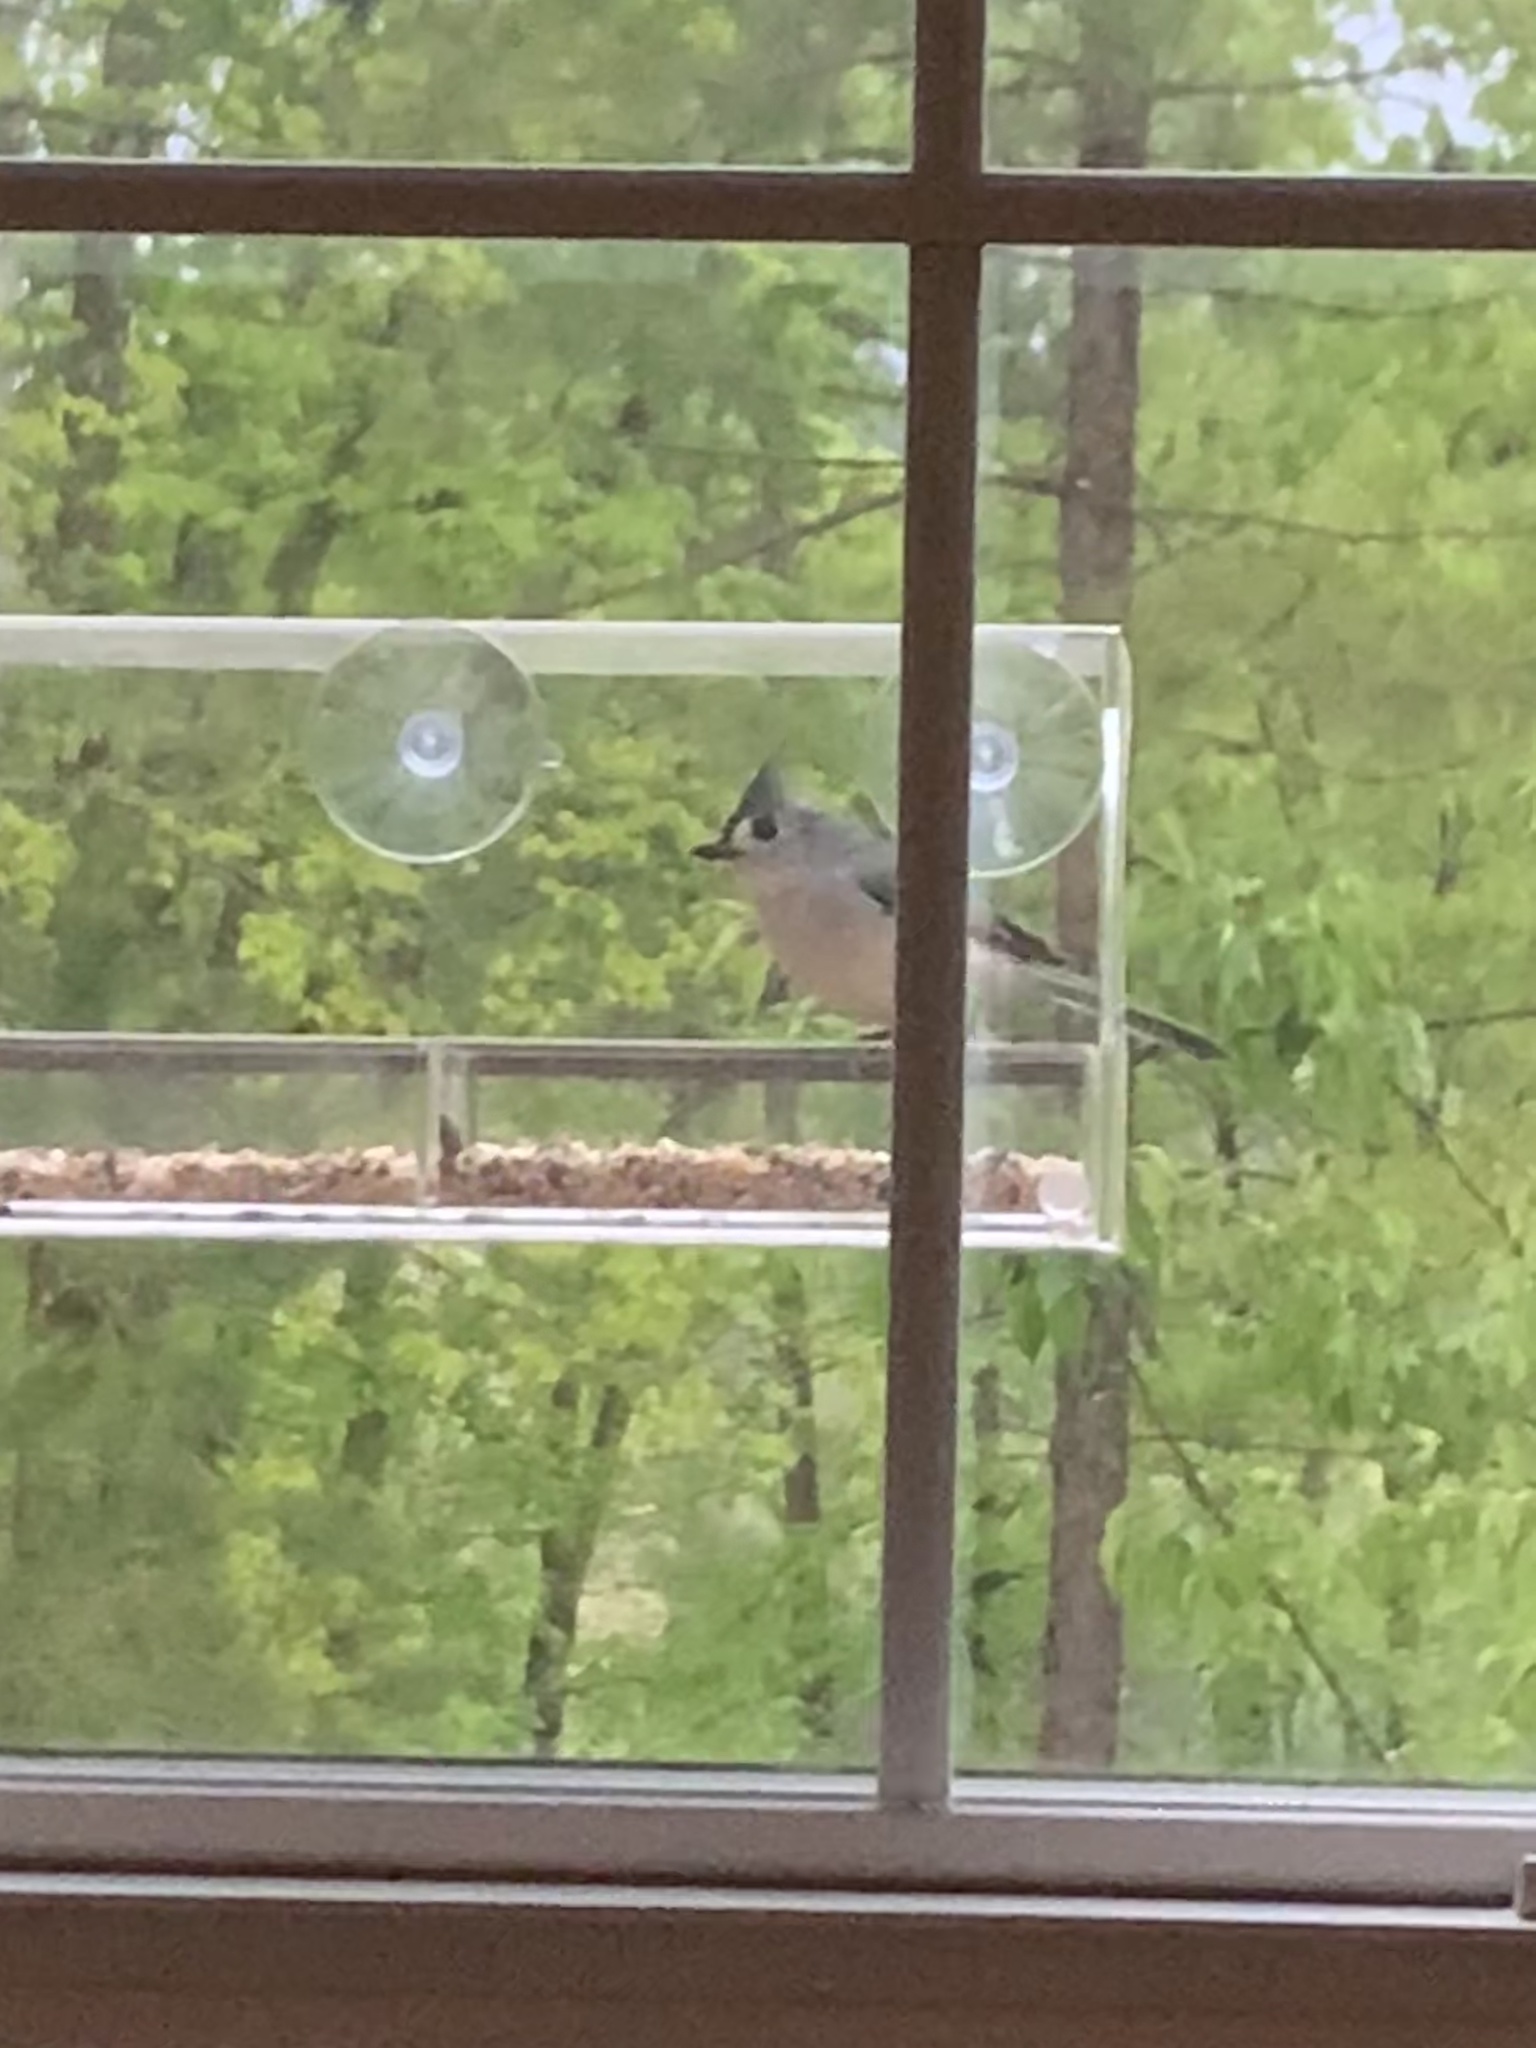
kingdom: Animalia
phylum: Chordata
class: Aves
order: Passeriformes
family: Paridae
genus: Baeolophus
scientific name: Baeolophus bicolor
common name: Tufted titmouse
